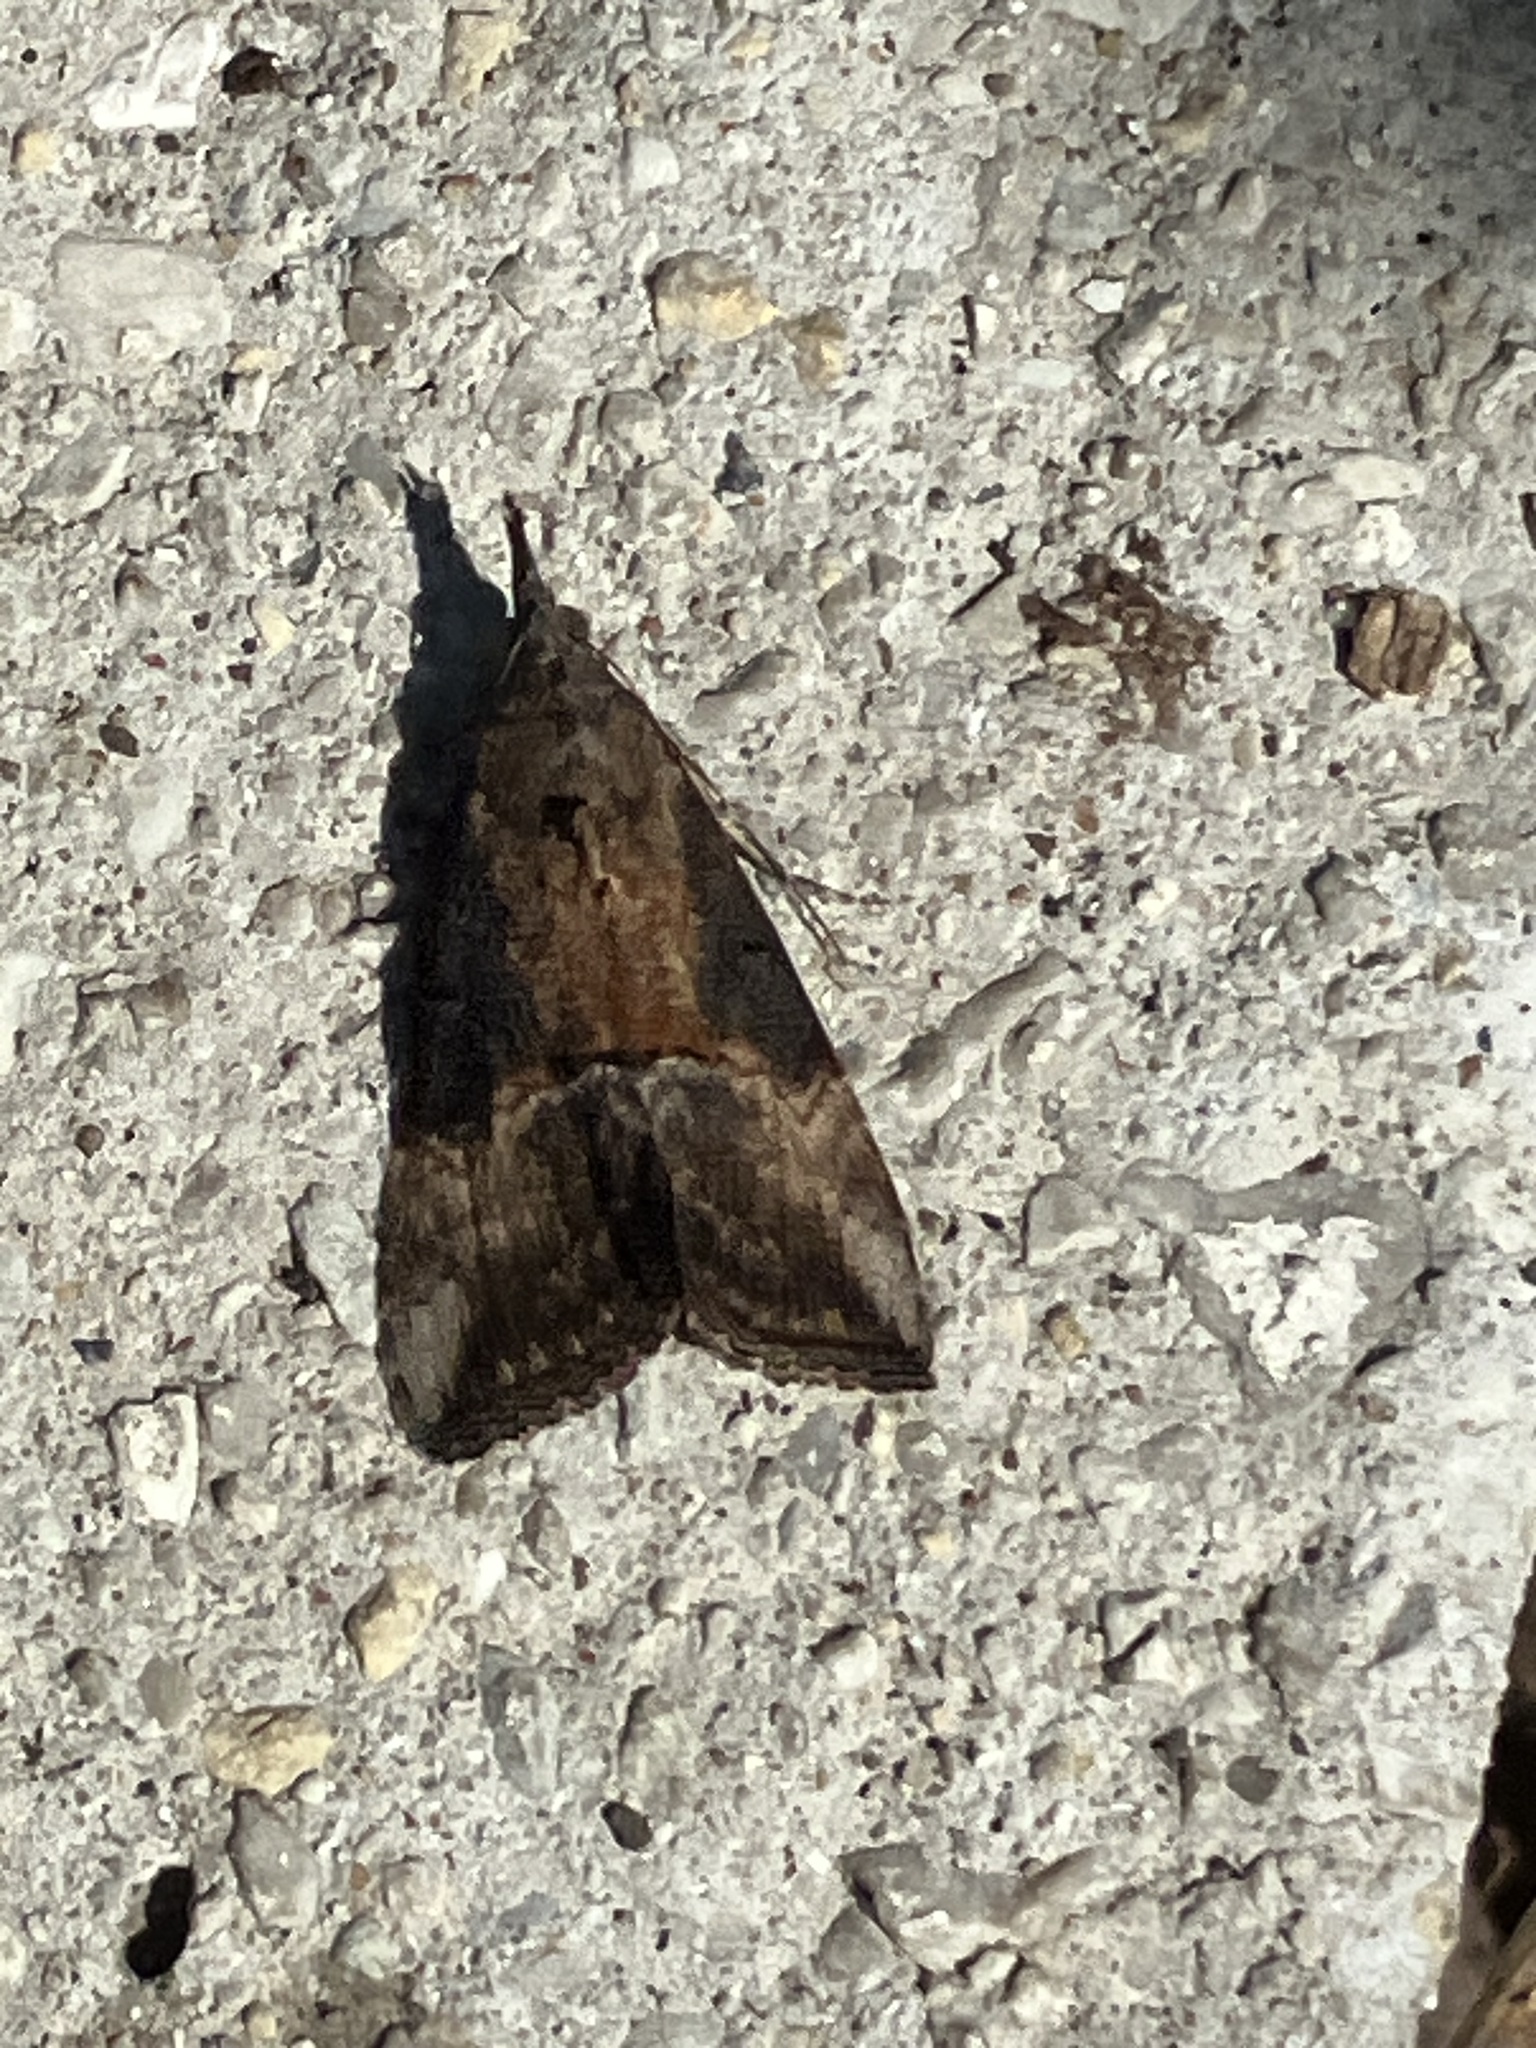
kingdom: Animalia
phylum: Arthropoda
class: Insecta
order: Lepidoptera
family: Erebidae
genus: Hypena
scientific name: Hypena scabra
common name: Green cloverworm
